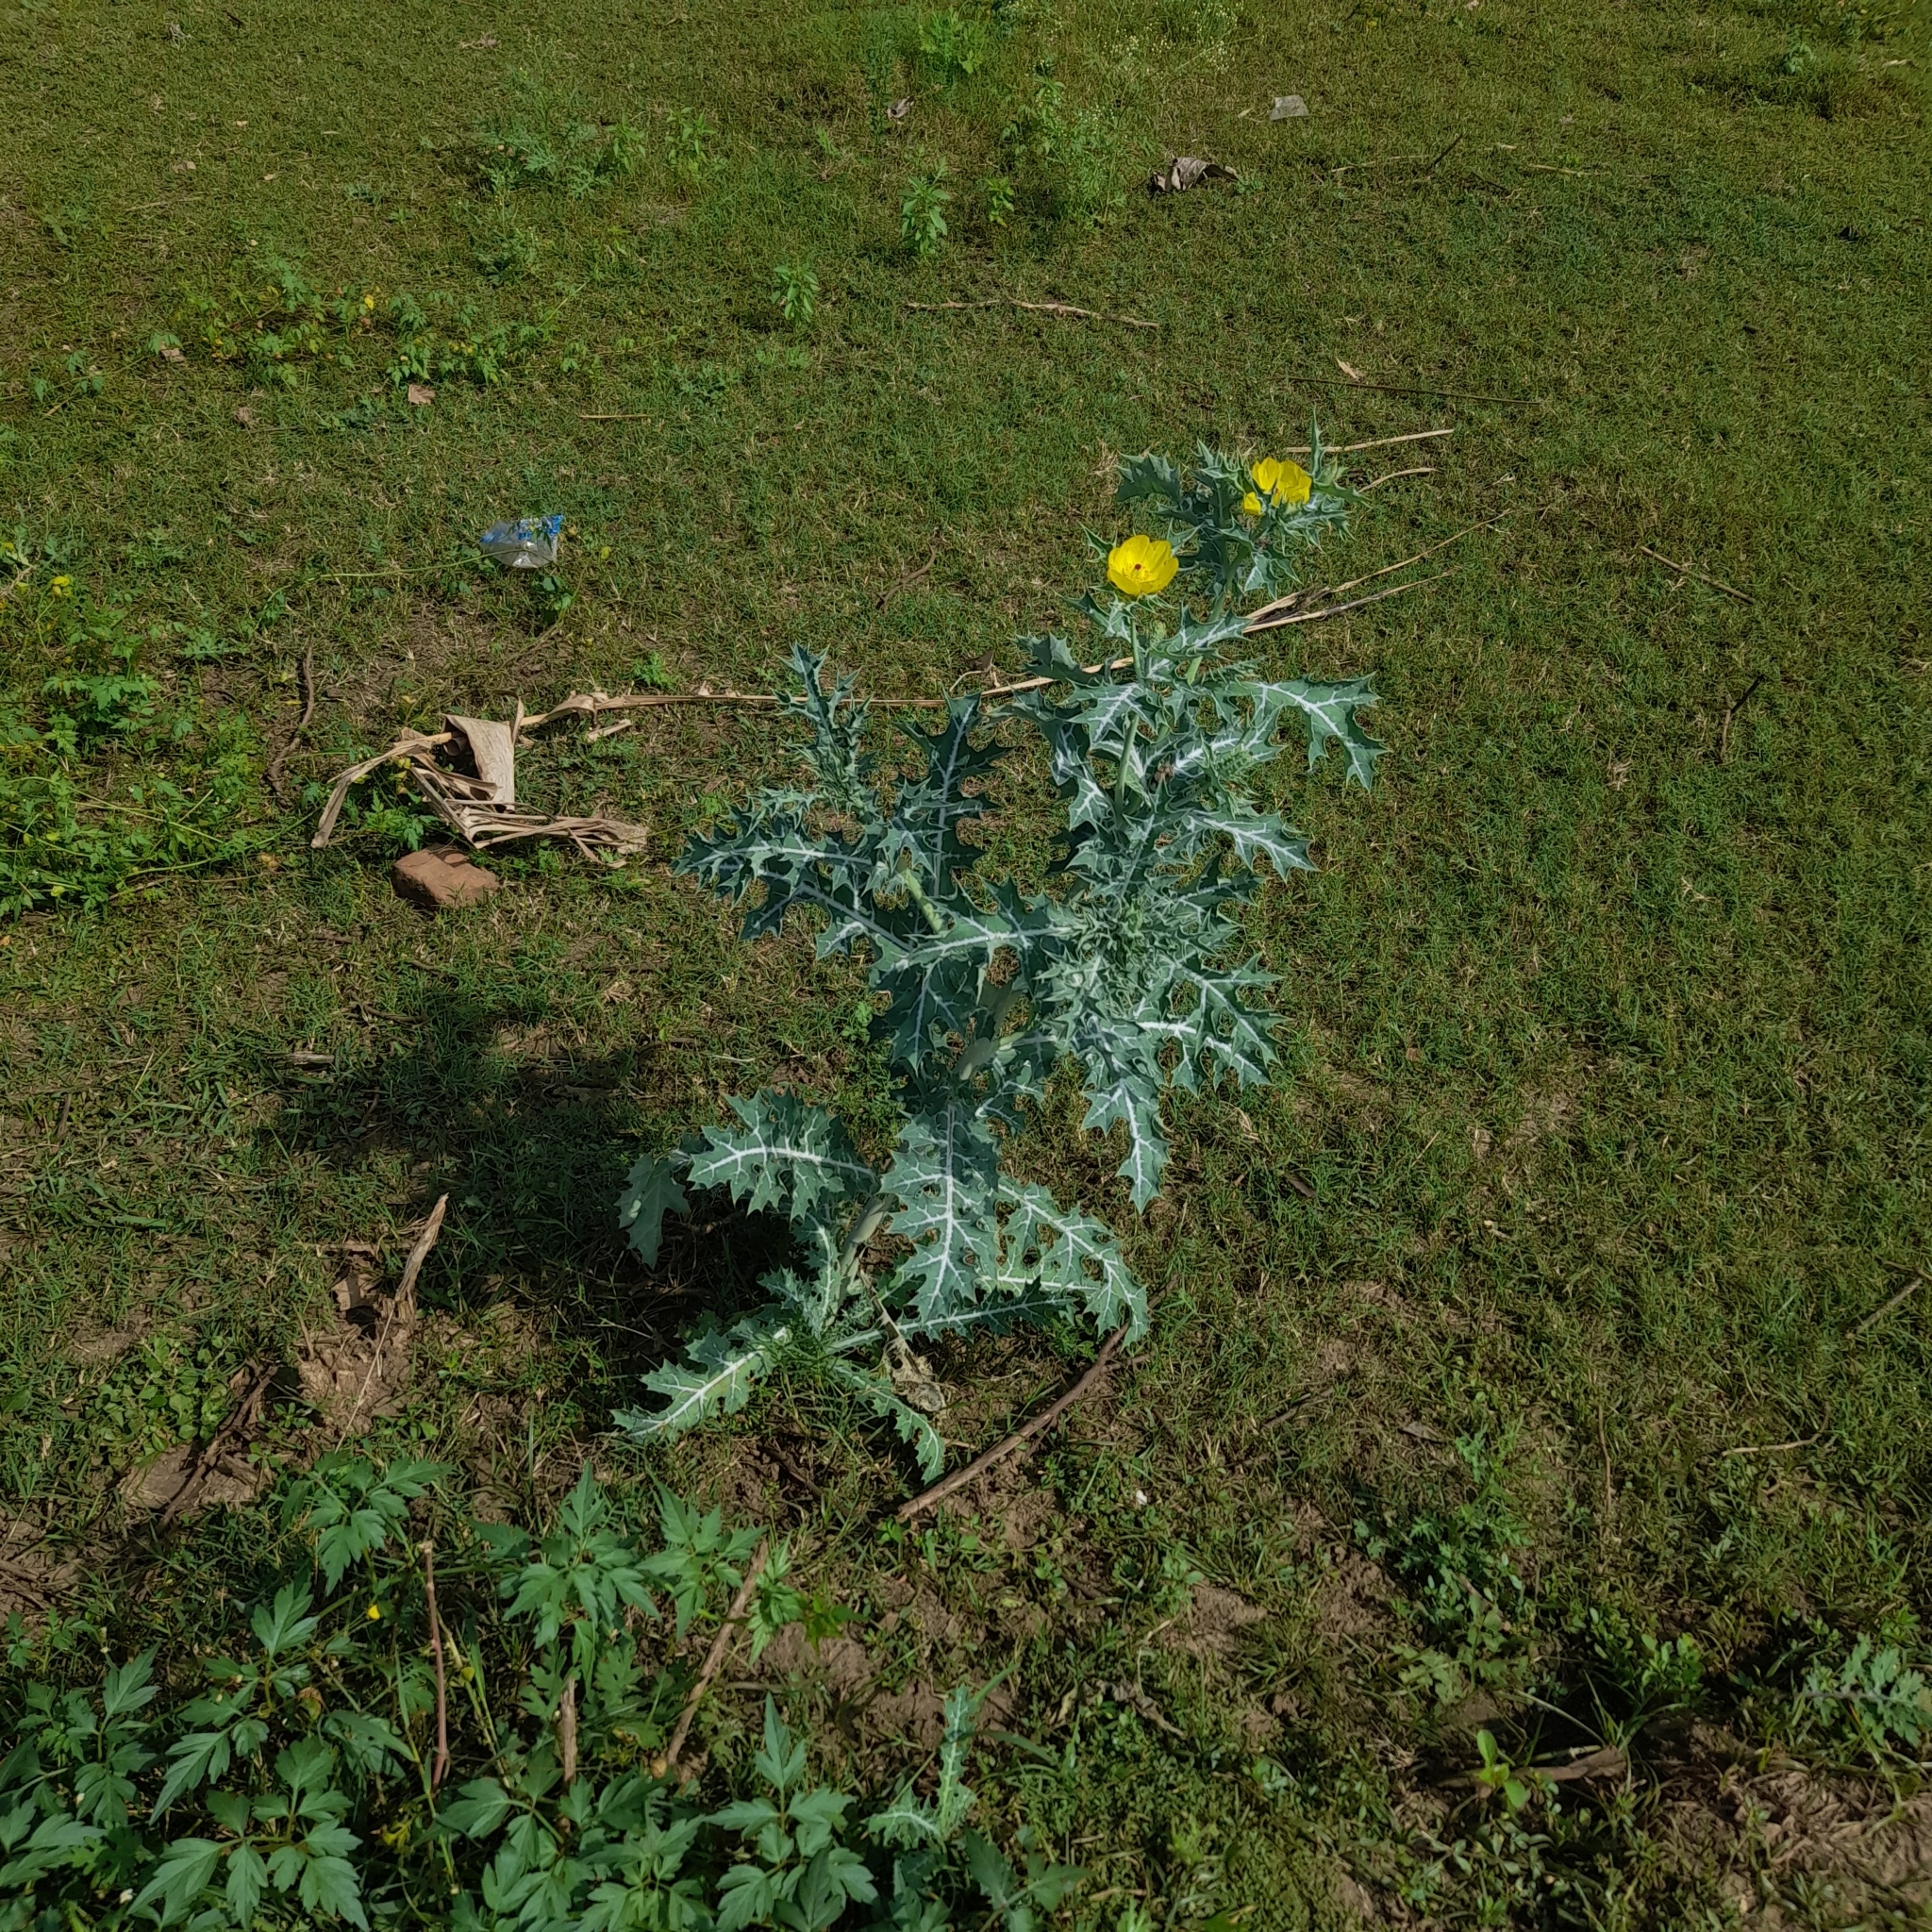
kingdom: Plantae
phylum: Tracheophyta
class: Magnoliopsida
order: Ranunculales
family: Papaveraceae
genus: Argemone
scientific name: Argemone mexicana
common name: Mexican poppy
